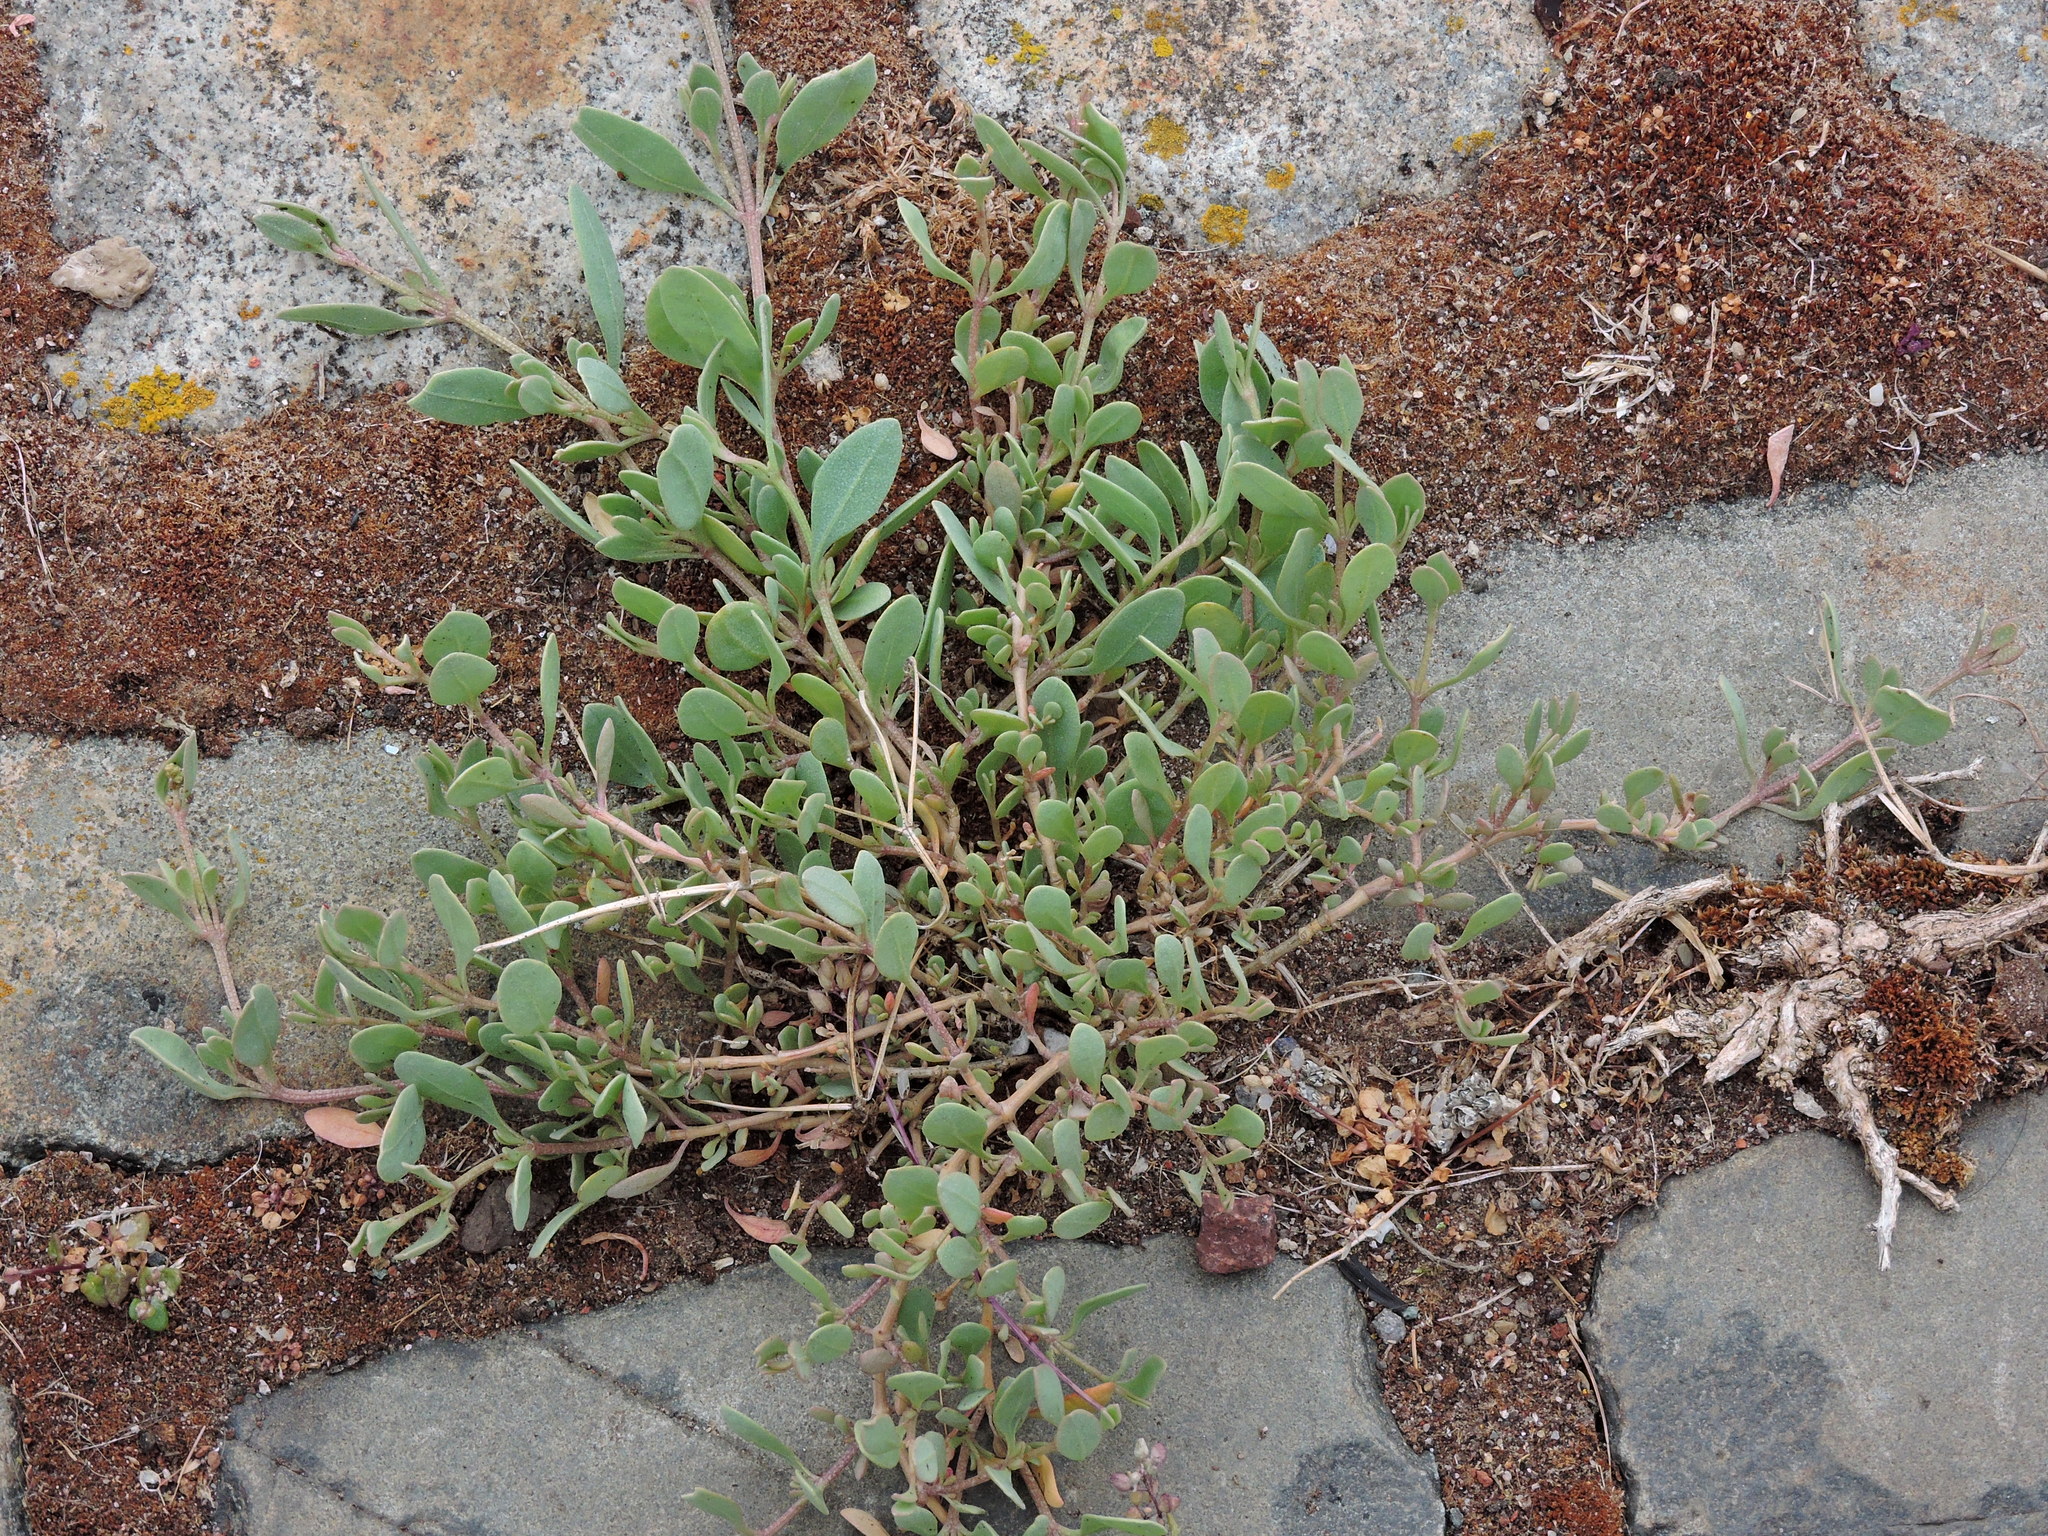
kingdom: Plantae
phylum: Tracheophyta
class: Magnoliopsida
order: Caryophyllales
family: Amaranthaceae
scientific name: Amaranthaceae
